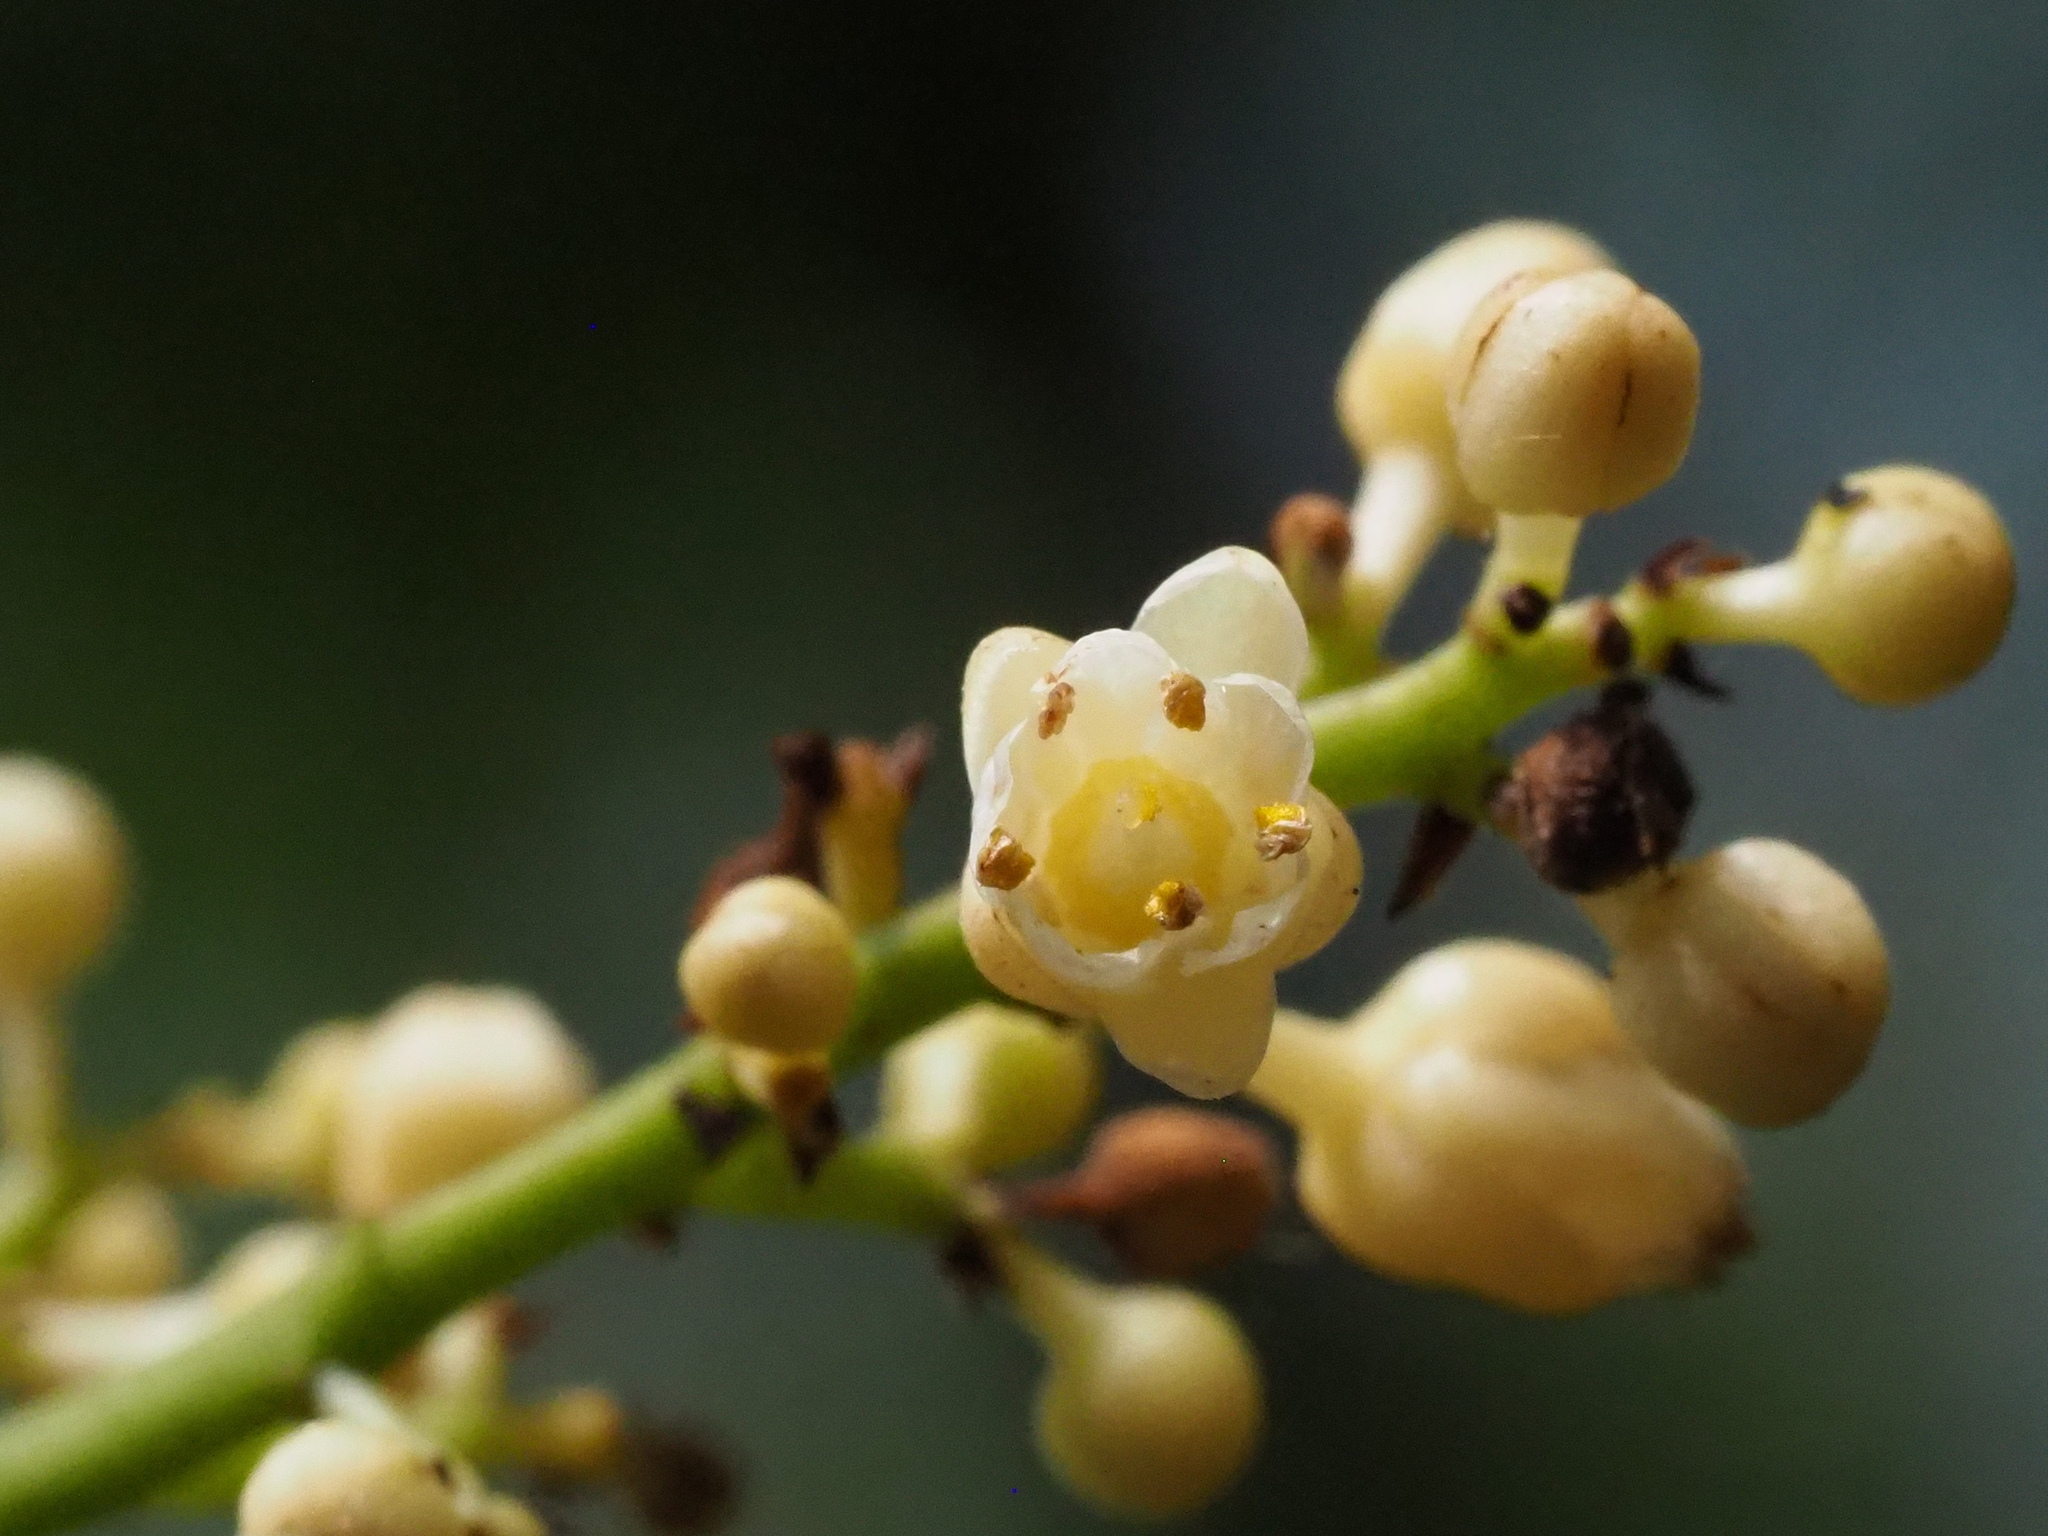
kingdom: Plantae
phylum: Tracheophyta
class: Magnoliopsida
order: Crossosomatales
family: Staphyleaceae
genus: Turpinia
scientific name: Turpinia formosana
